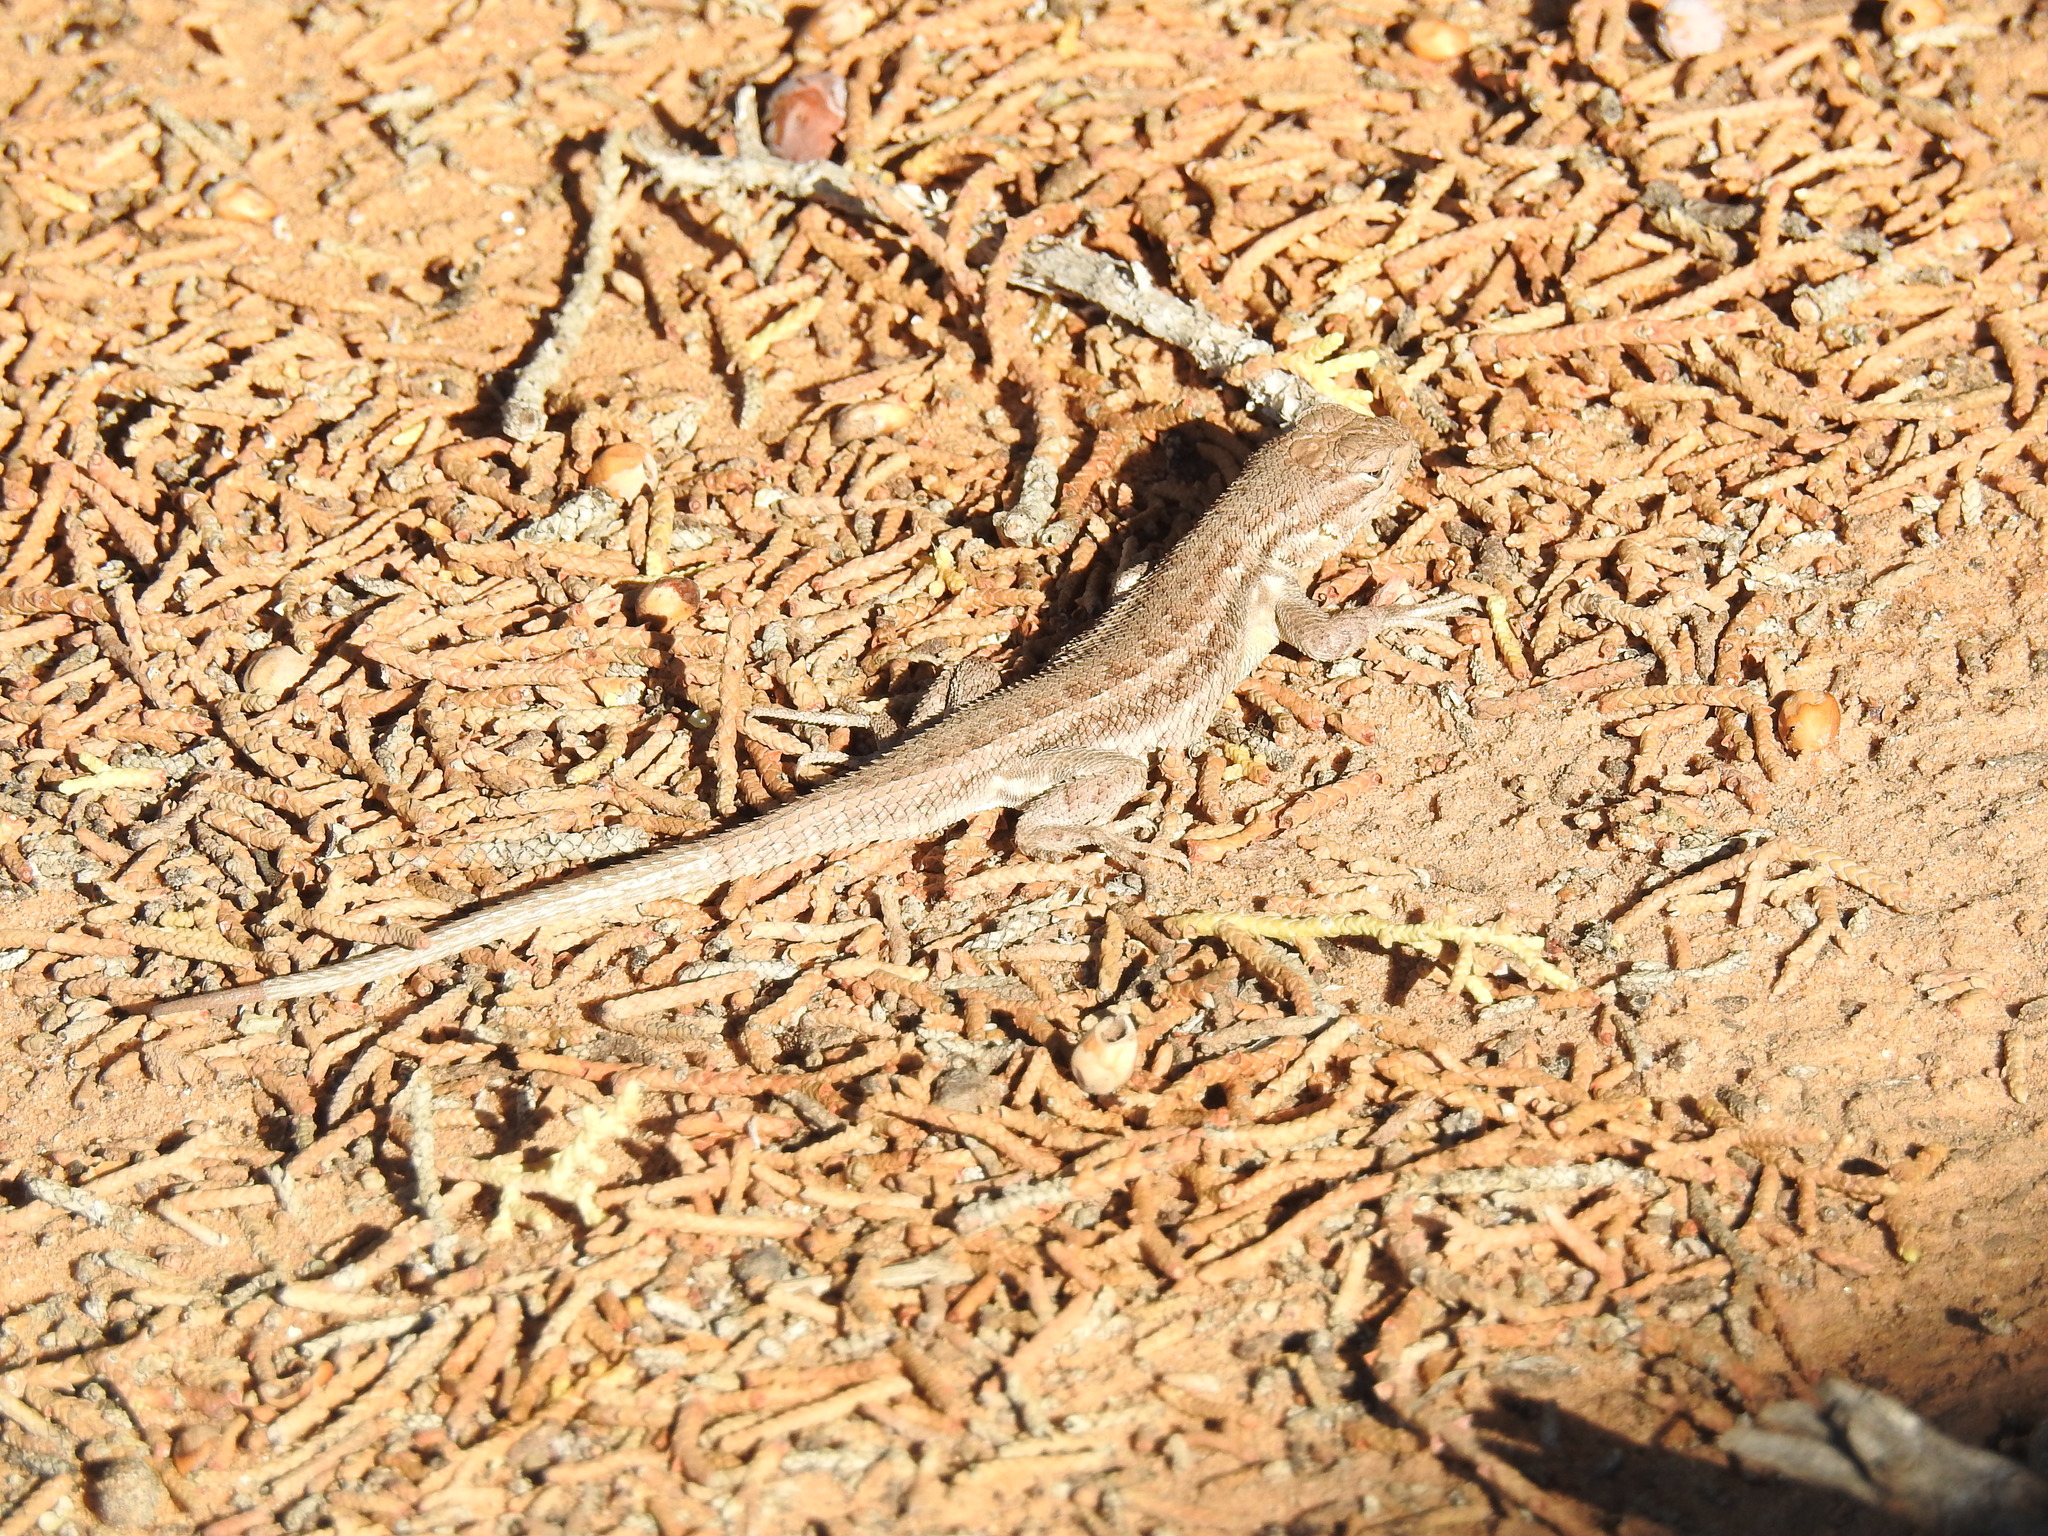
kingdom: Animalia
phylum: Chordata
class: Squamata
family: Phrynosomatidae
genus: Sceloporus
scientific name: Sceloporus graciosus
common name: Sagebrush lizard
